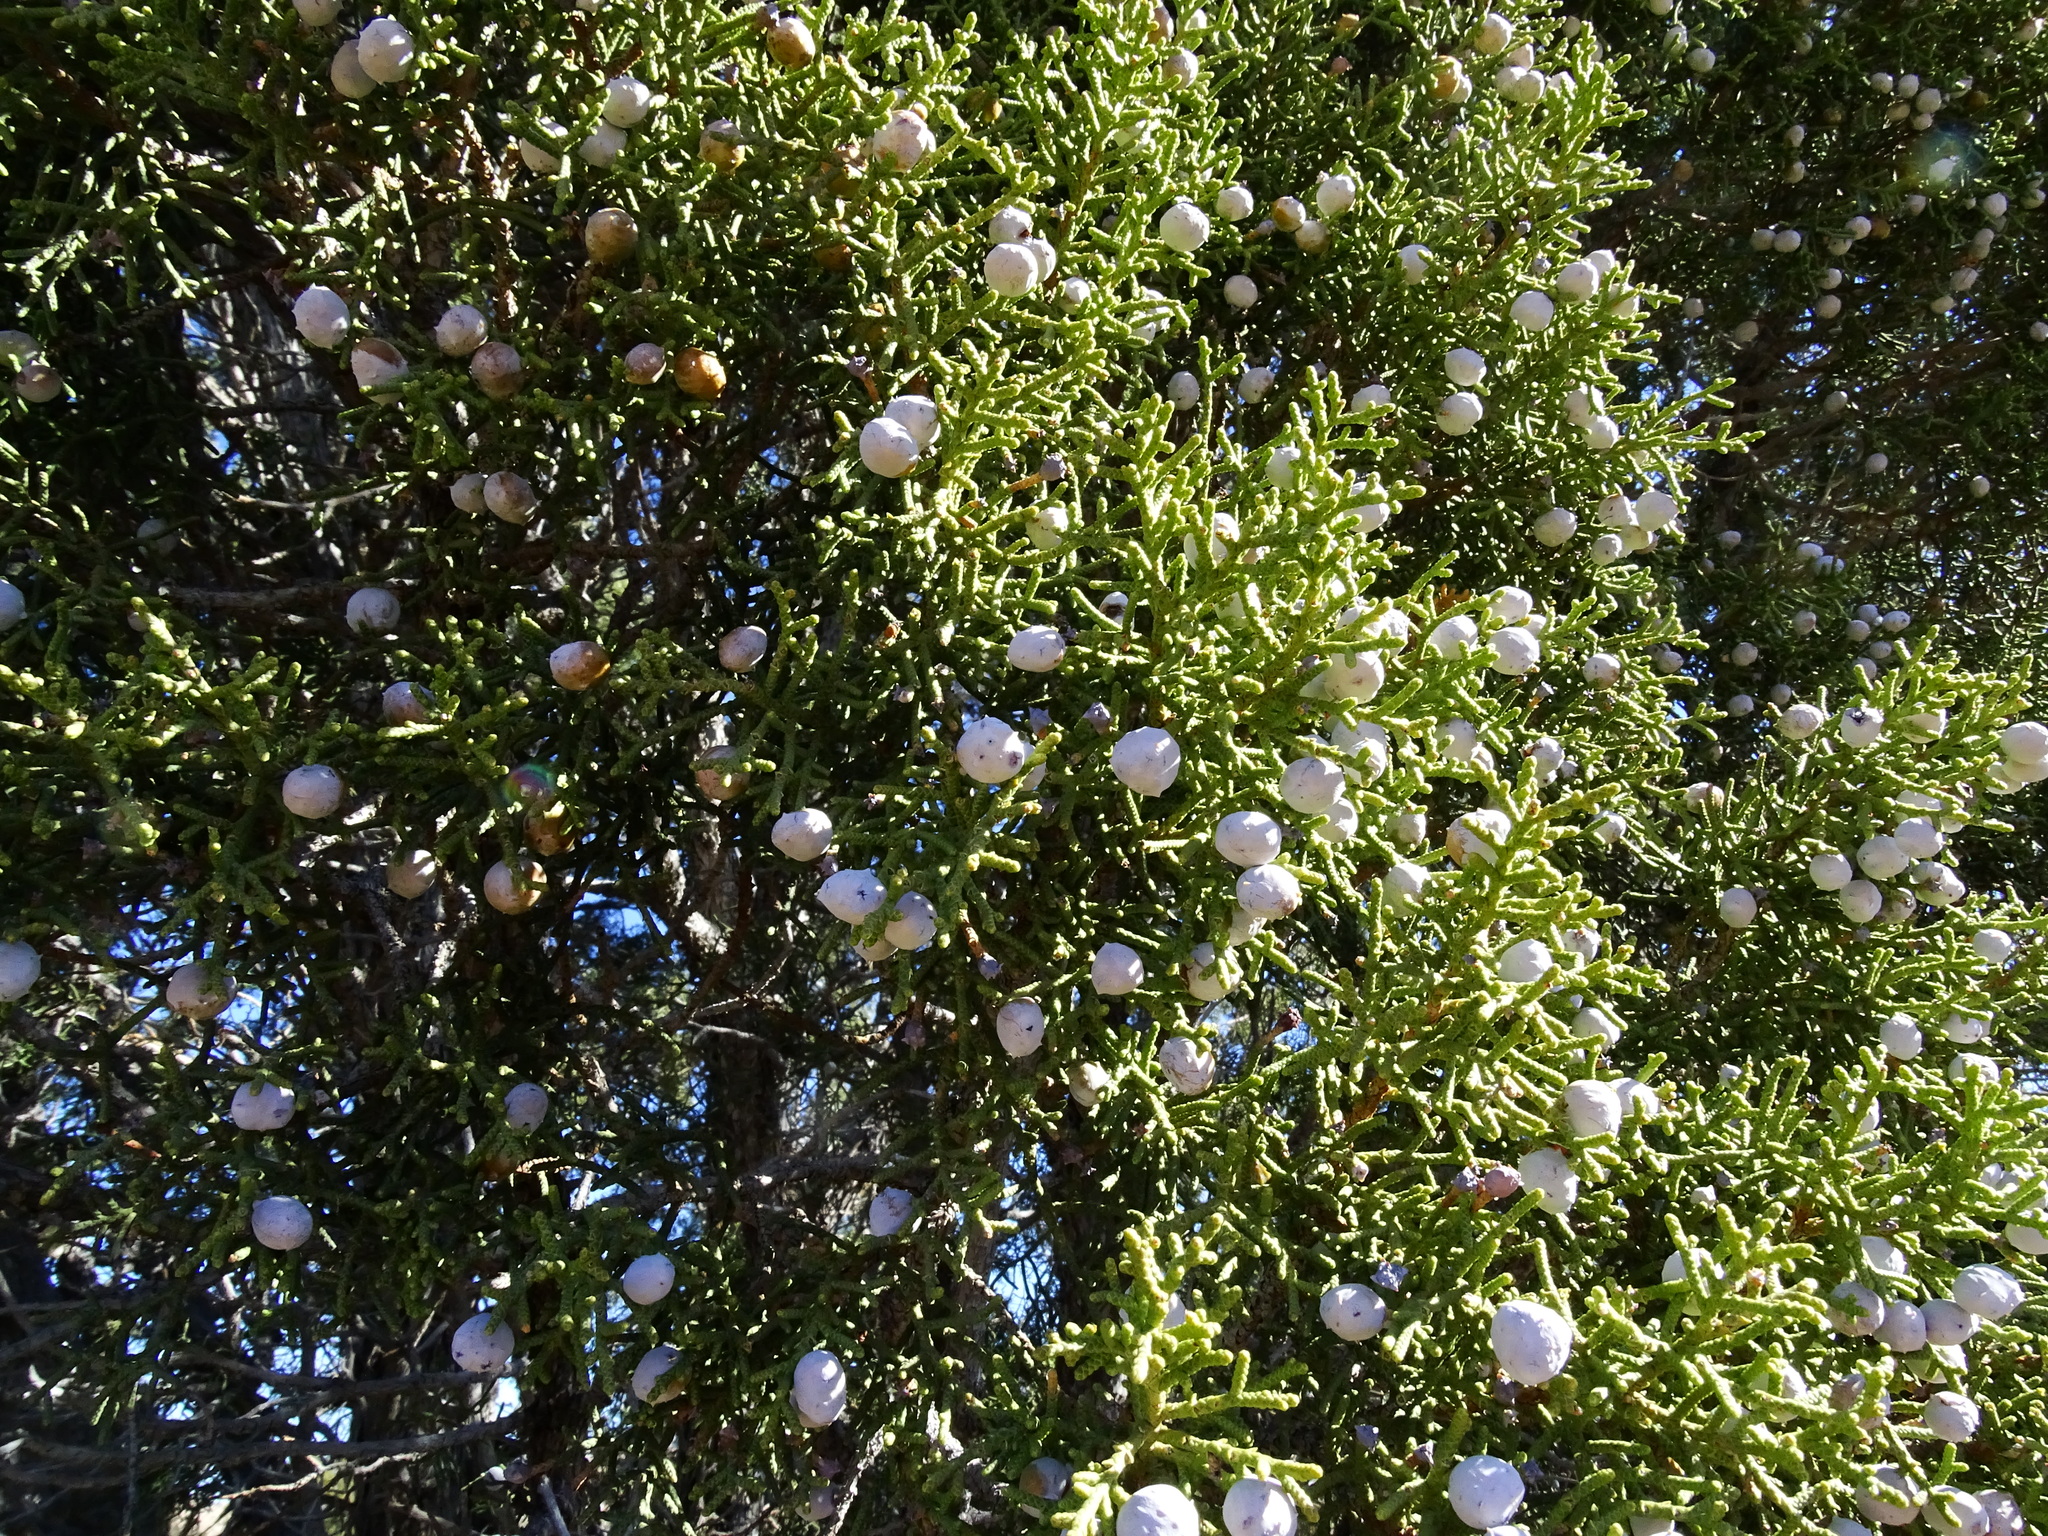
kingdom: Plantae
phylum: Tracheophyta
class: Pinopsida
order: Pinales
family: Cupressaceae
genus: Juniperus
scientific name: Juniperus californica
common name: California juniper
